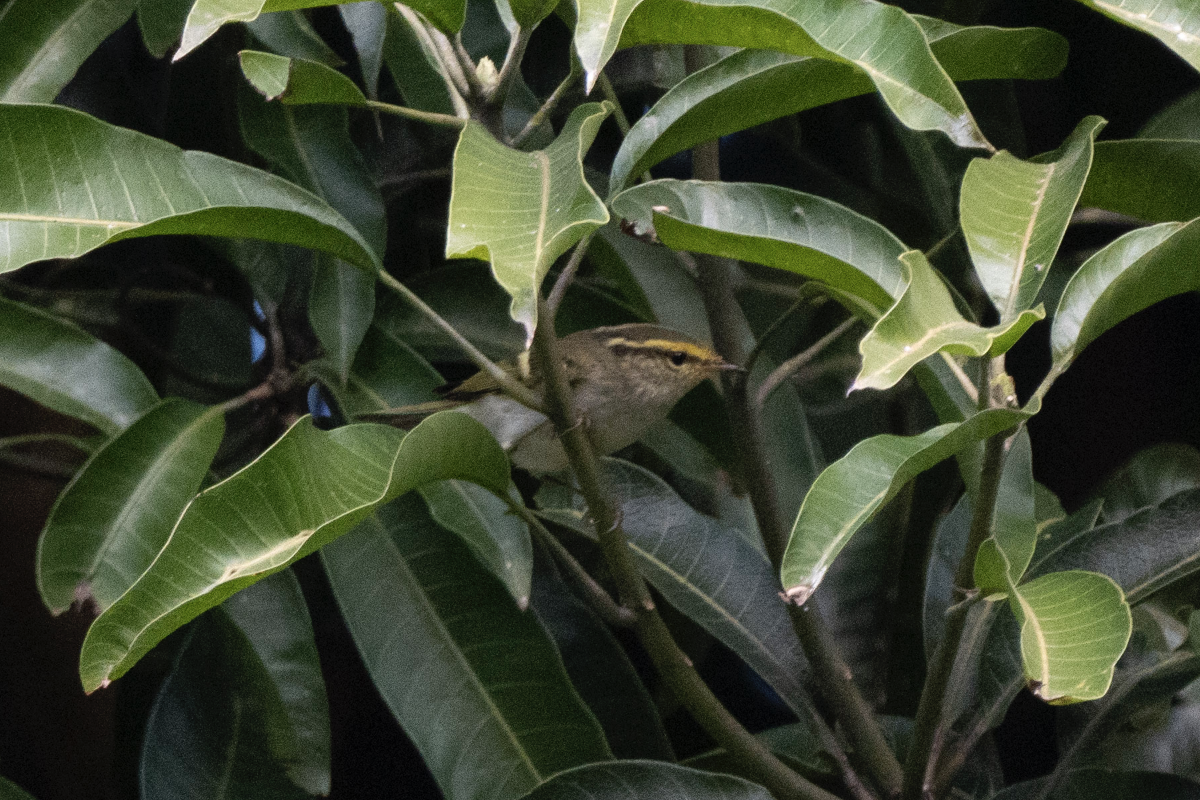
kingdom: Animalia
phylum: Chordata
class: Aves
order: Passeriformes
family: Phylloscopidae
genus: Phylloscopus
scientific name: Phylloscopus proregulus
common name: Pallas's leaf warbler
